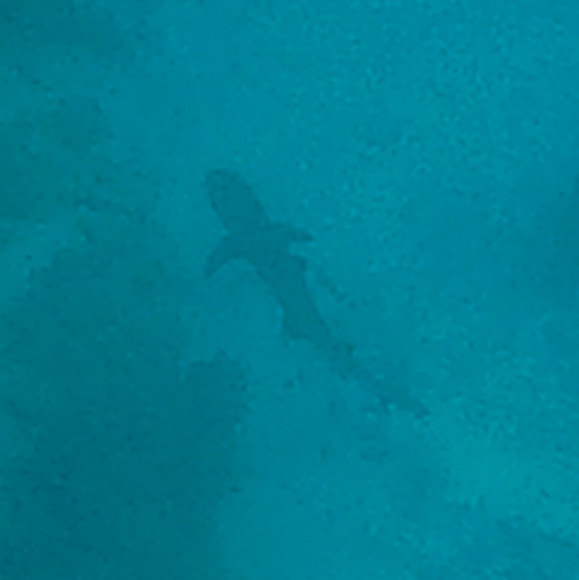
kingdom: Animalia
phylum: Chordata
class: Elasmobranchii
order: Carcharhiniformes
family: Carcharhinidae
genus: Triaenodon
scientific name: Triaenodon obesus
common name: Whitetip reef shark
